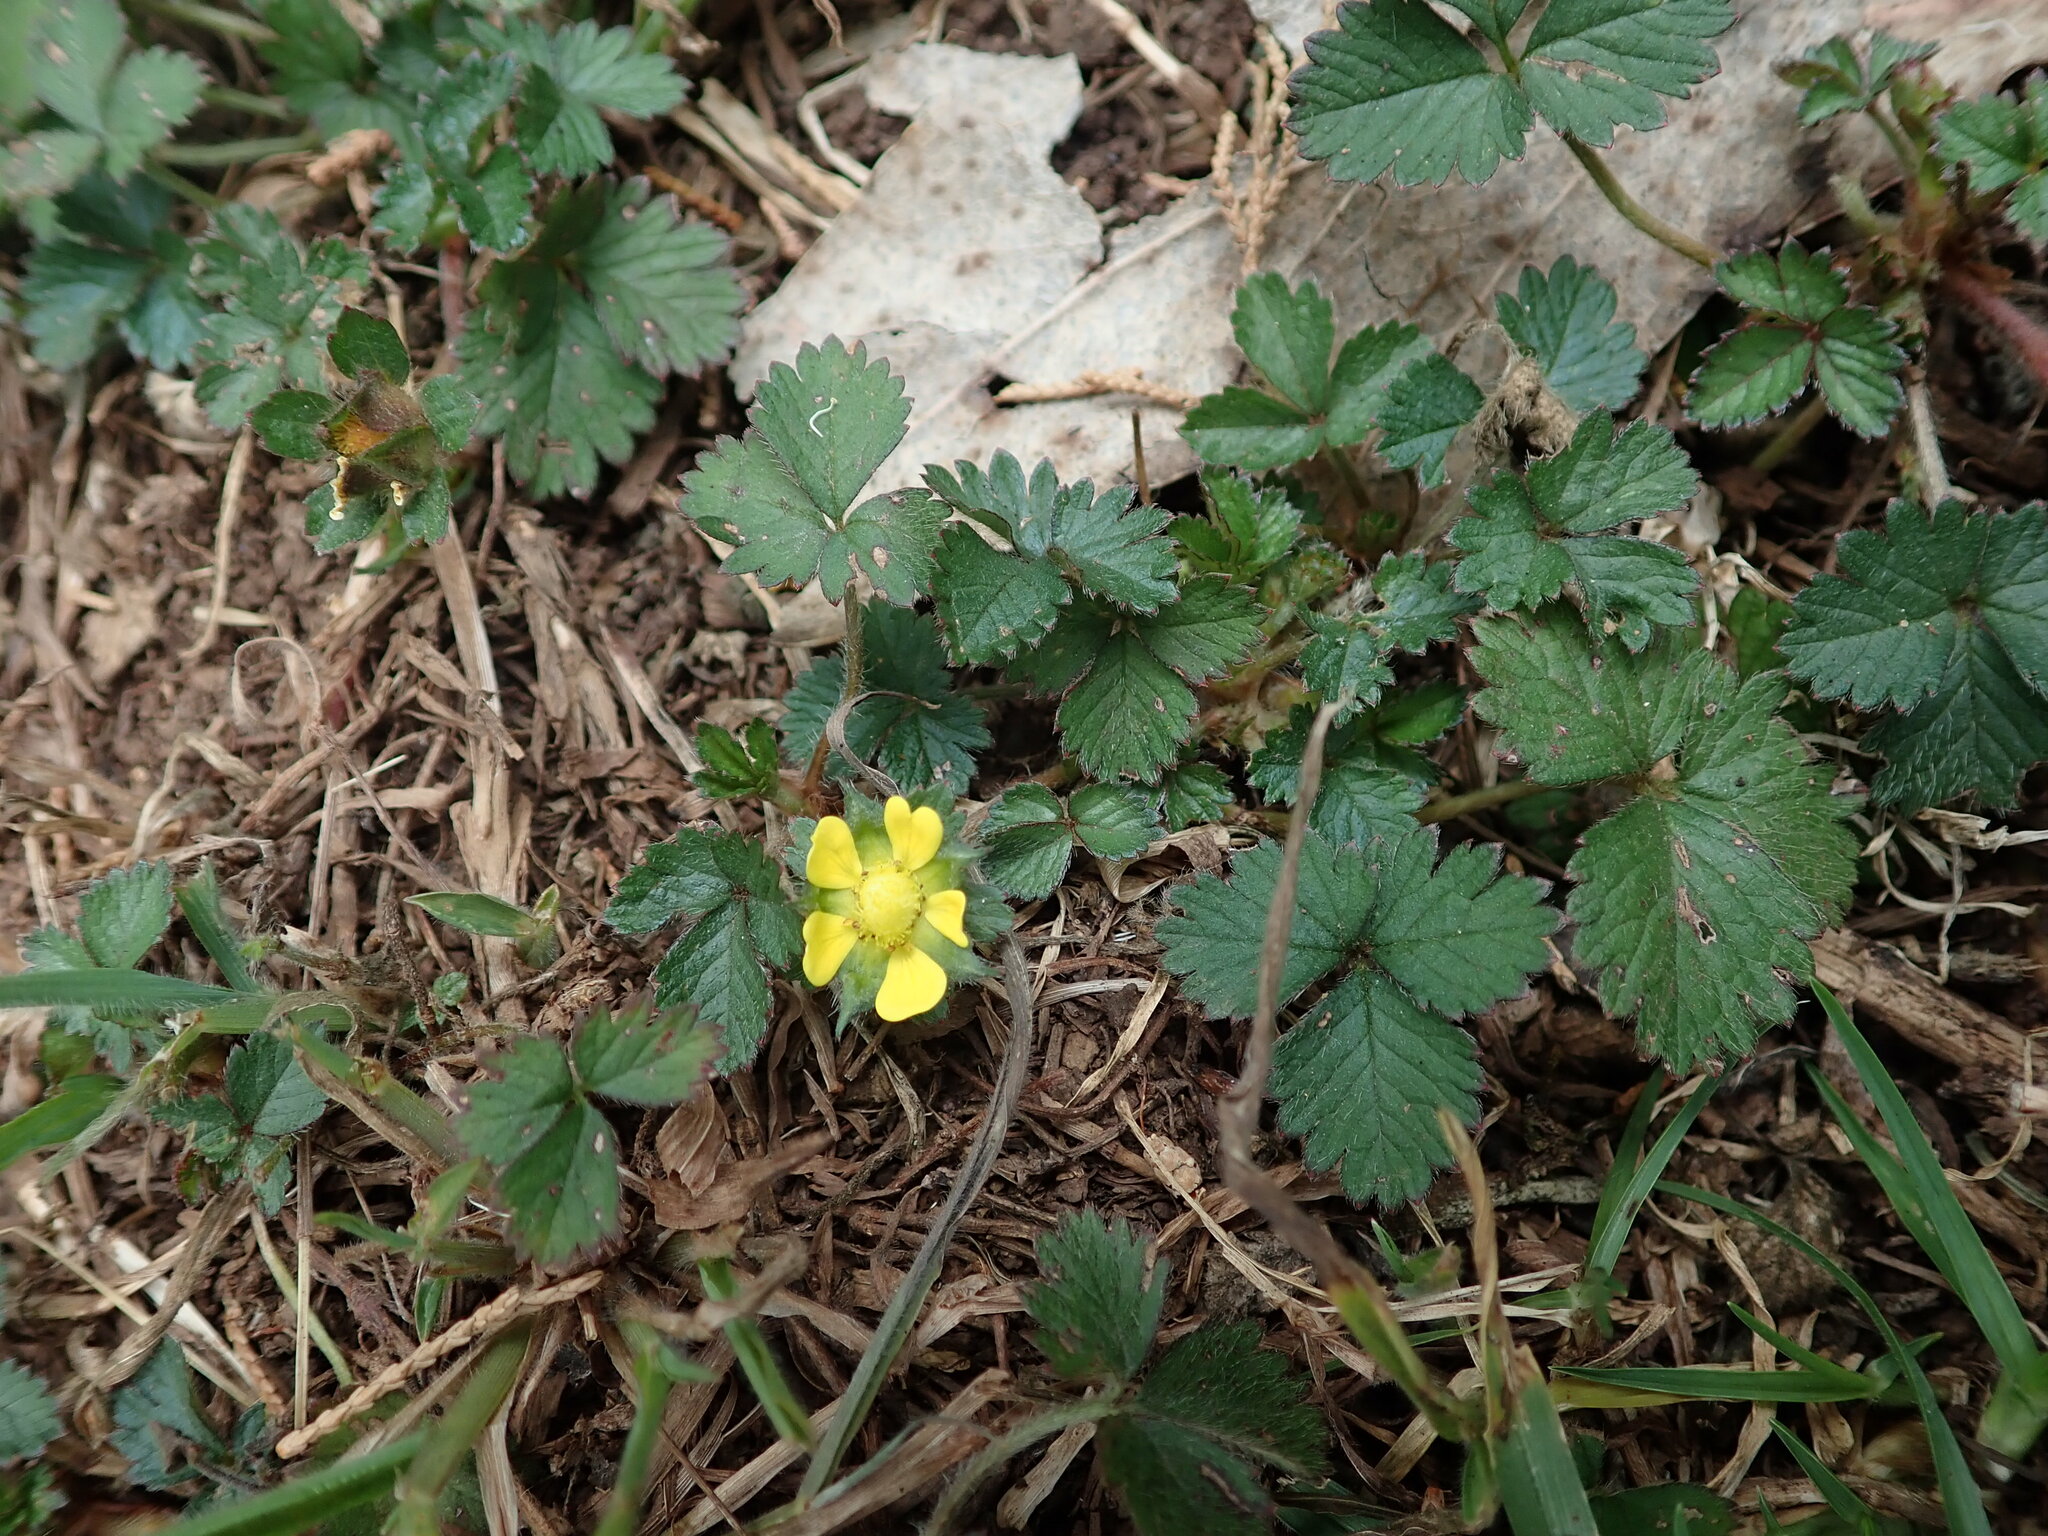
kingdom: Plantae
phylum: Tracheophyta
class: Magnoliopsida
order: Rosales
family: Rosaceae
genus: Potentilla
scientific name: Potentilla indica
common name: Yellow-flowered strawberry
